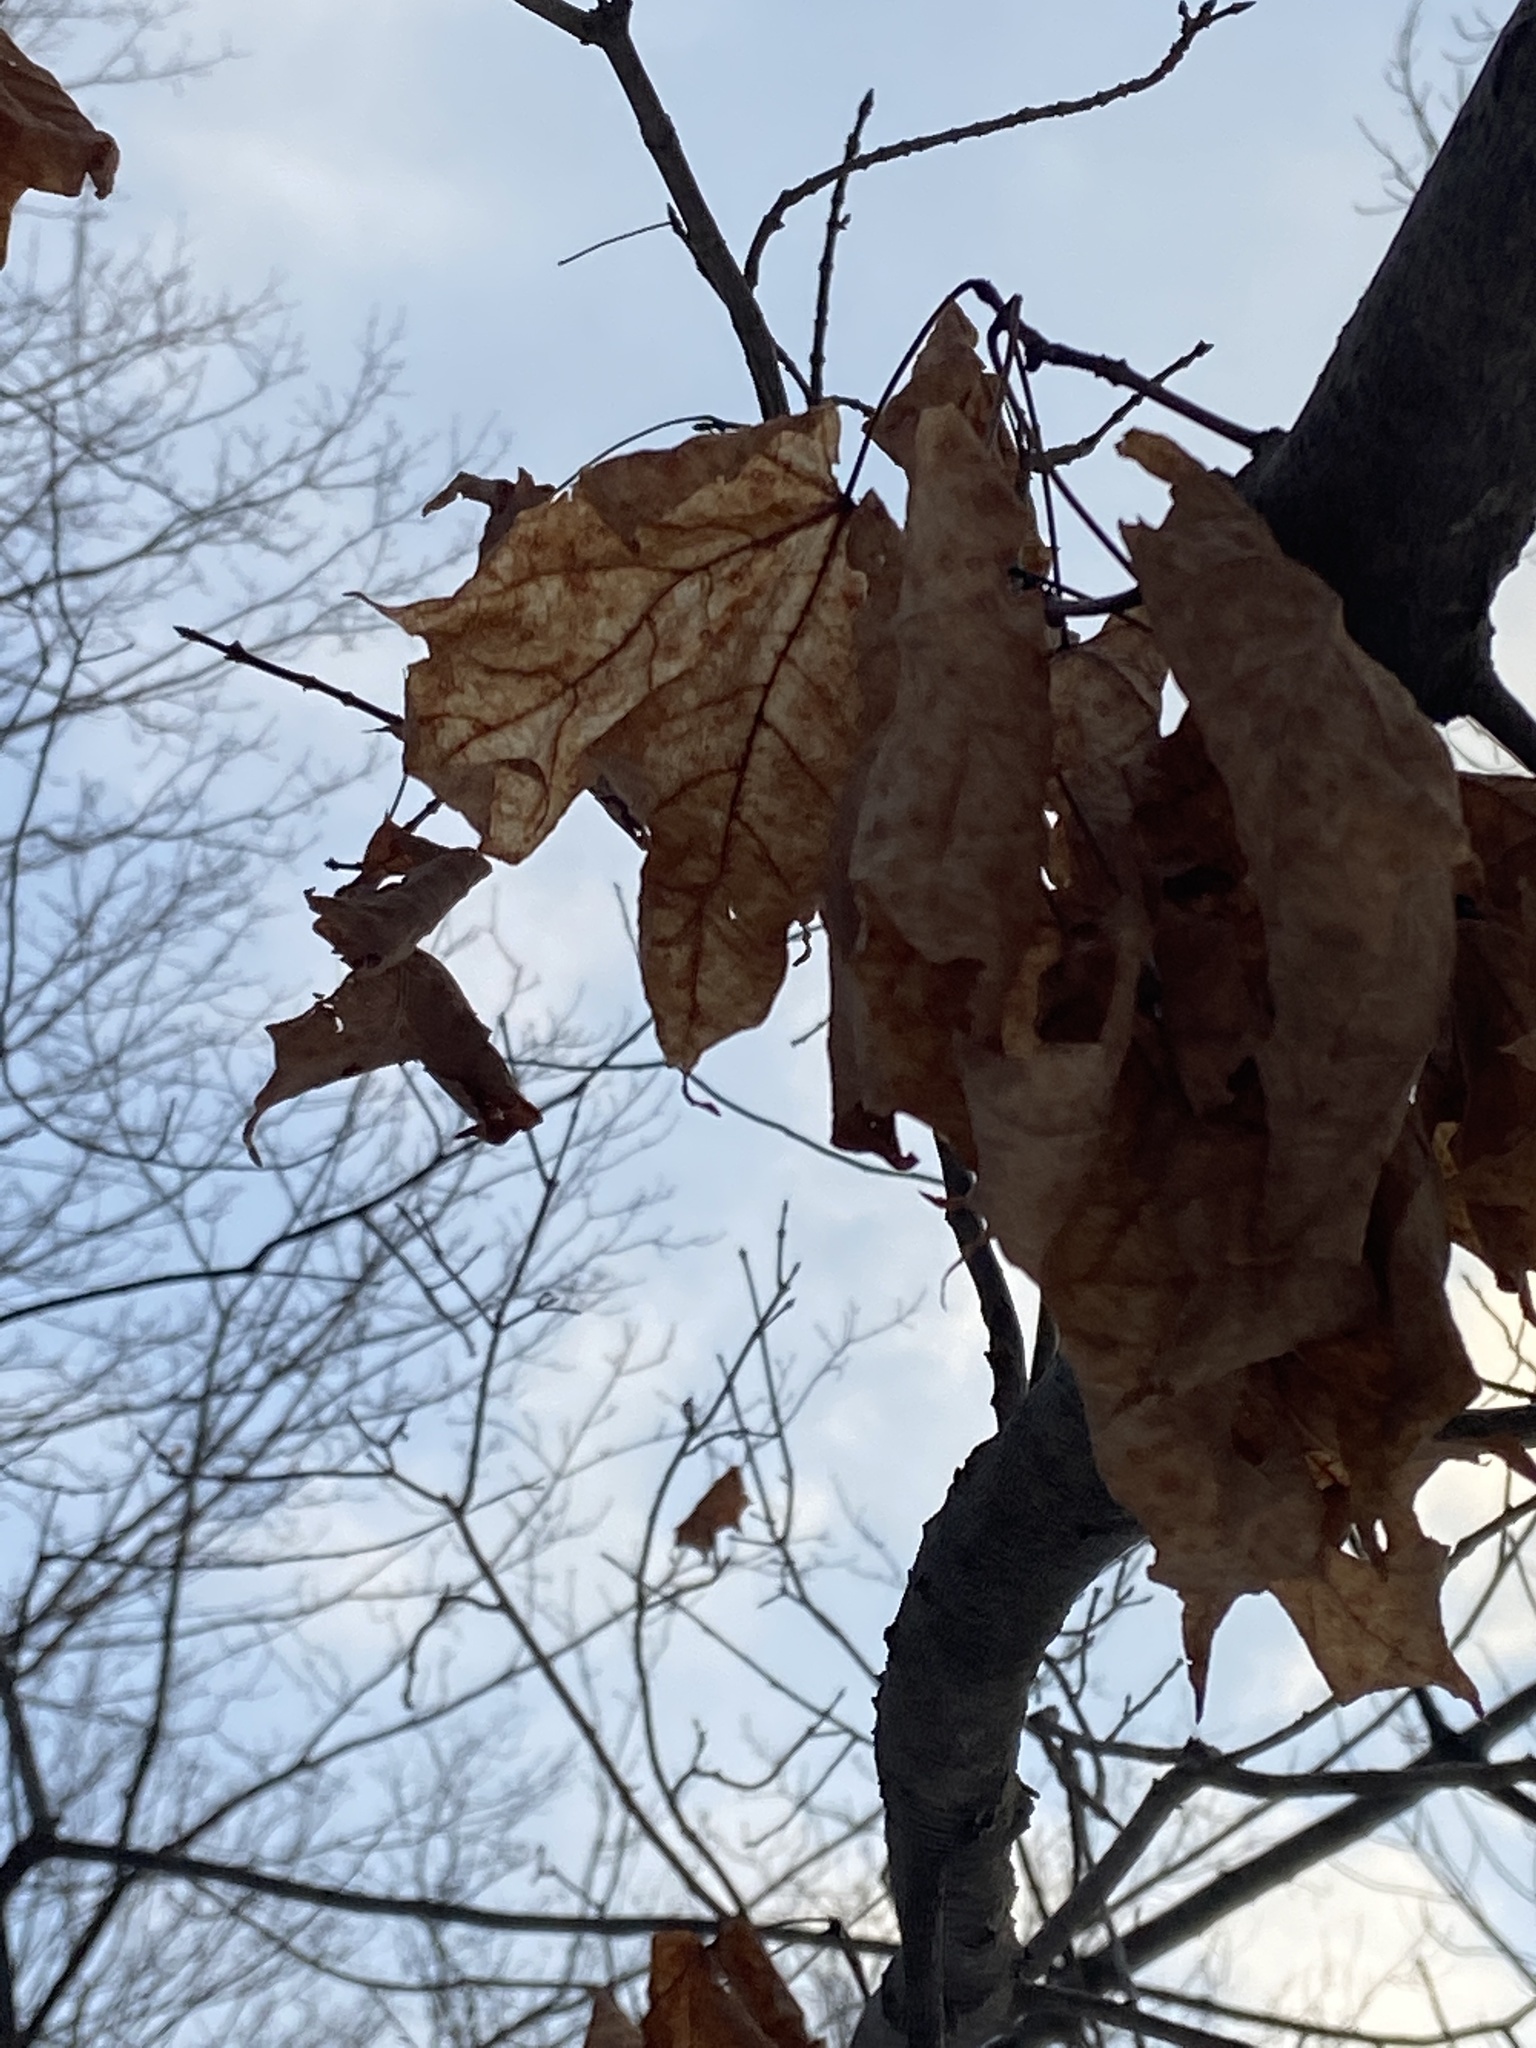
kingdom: Plantae
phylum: Tracheophyta
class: Magnoliopsida
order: Sapindales
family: Sapindaceae
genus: Acer
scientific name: Acer saccharum
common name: Sugar maple
